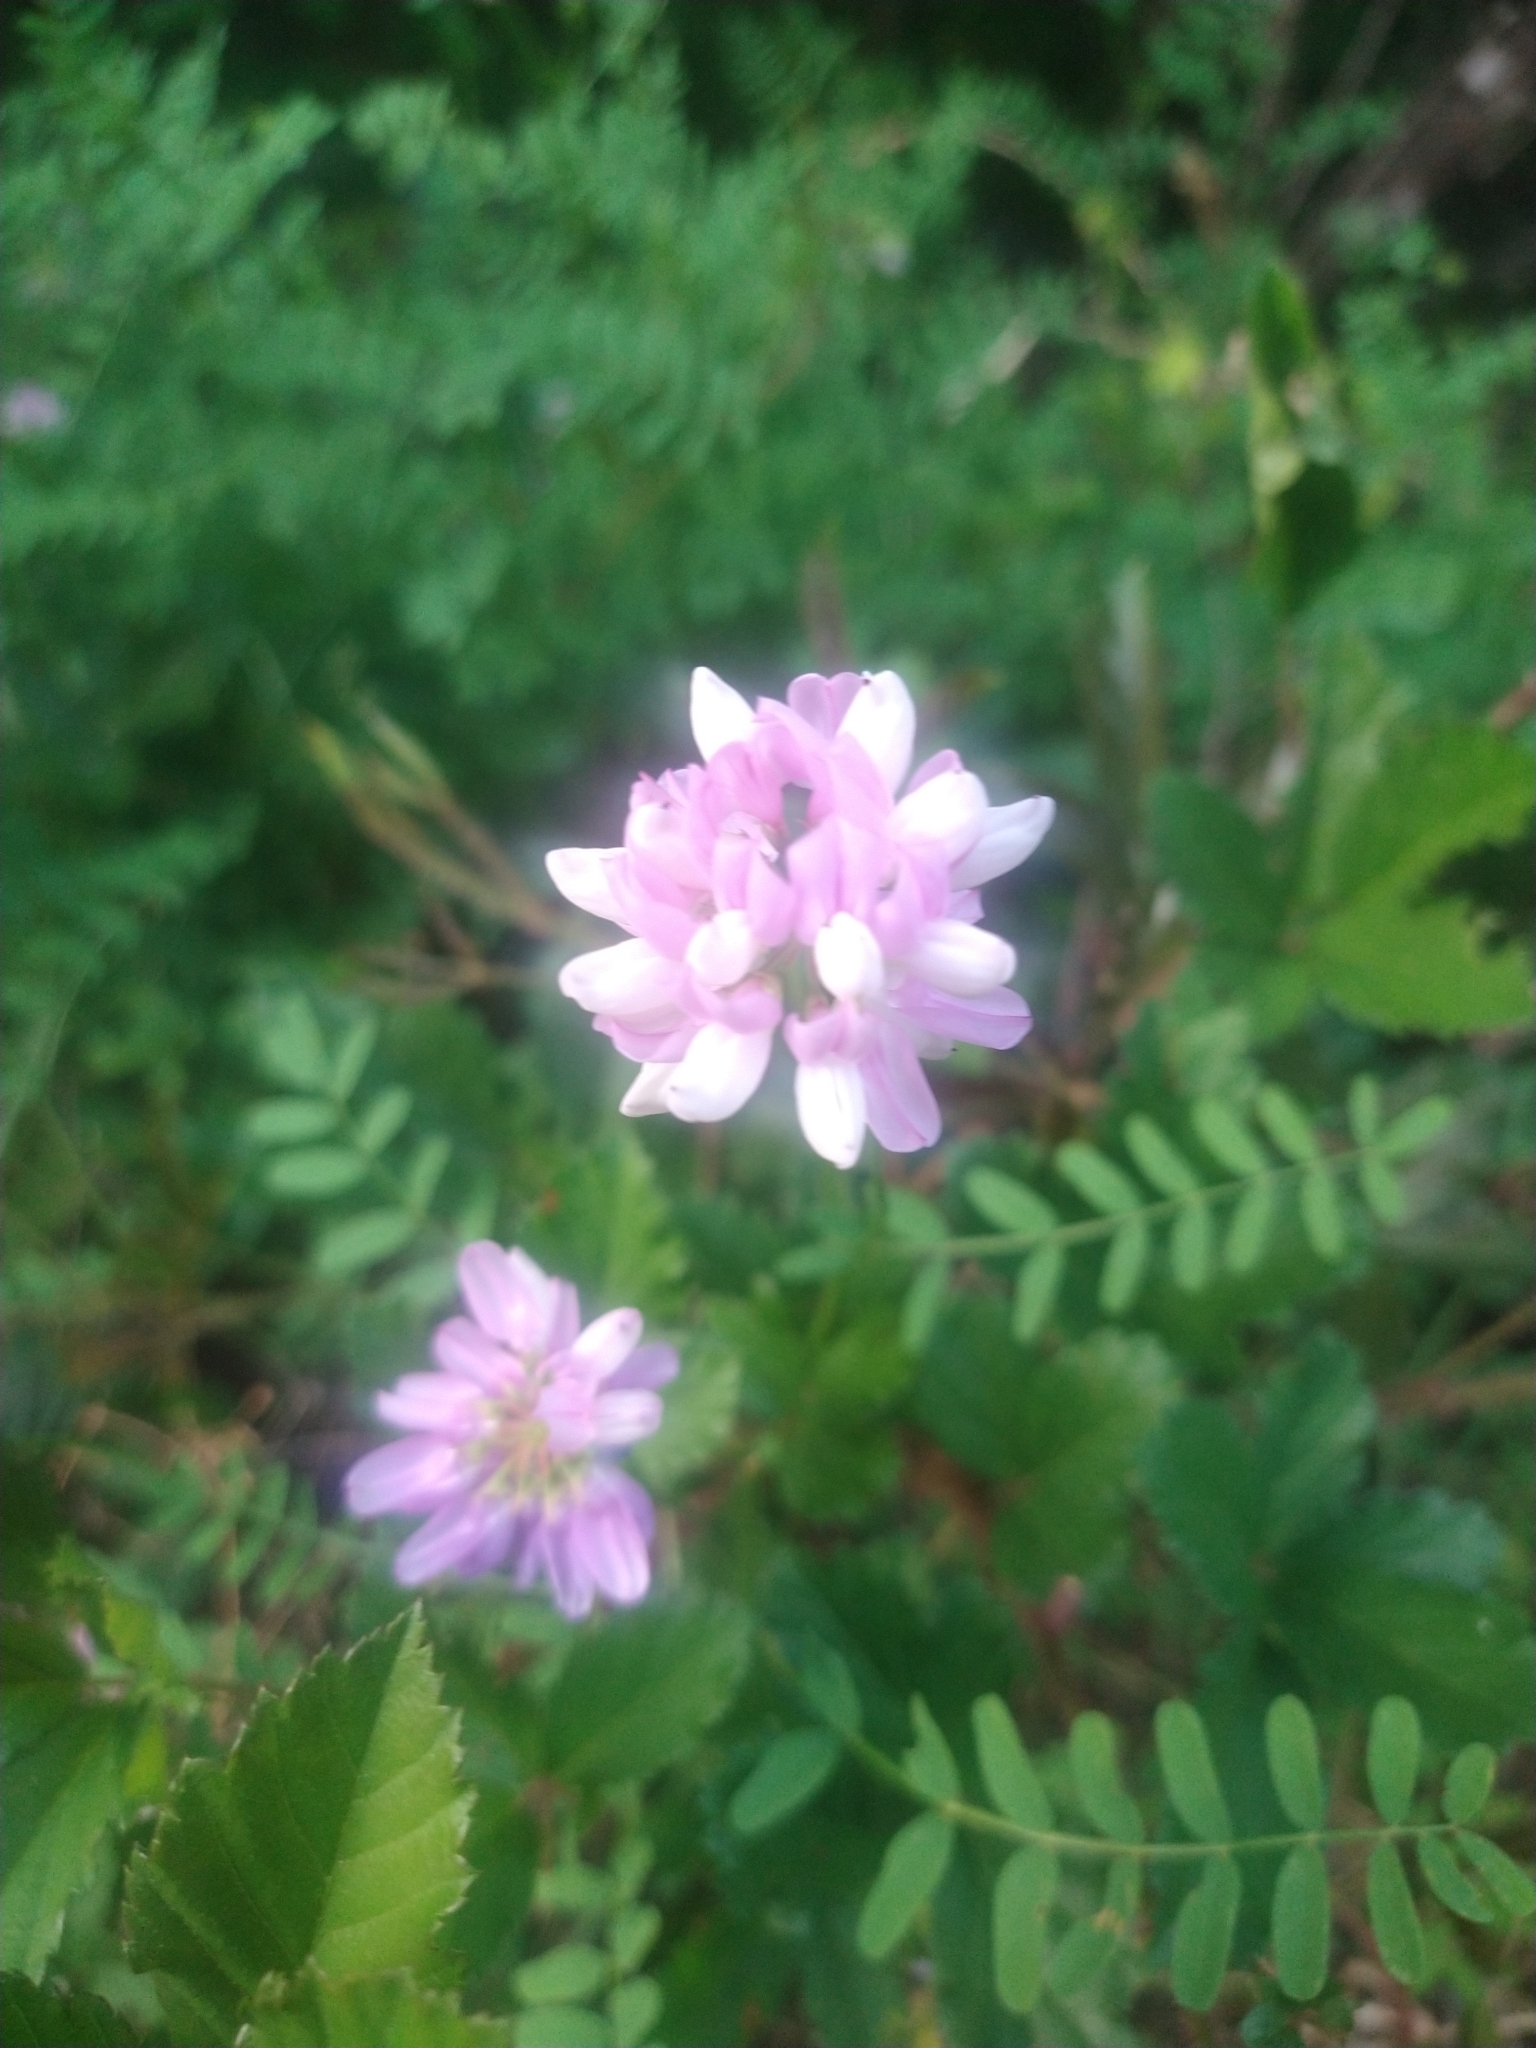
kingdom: Plantae
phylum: Tracheophyta
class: Magnoliopsida
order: Fabales
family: Fabaceae
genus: Coronilla
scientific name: Coronilla varia
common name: Crownvetch
